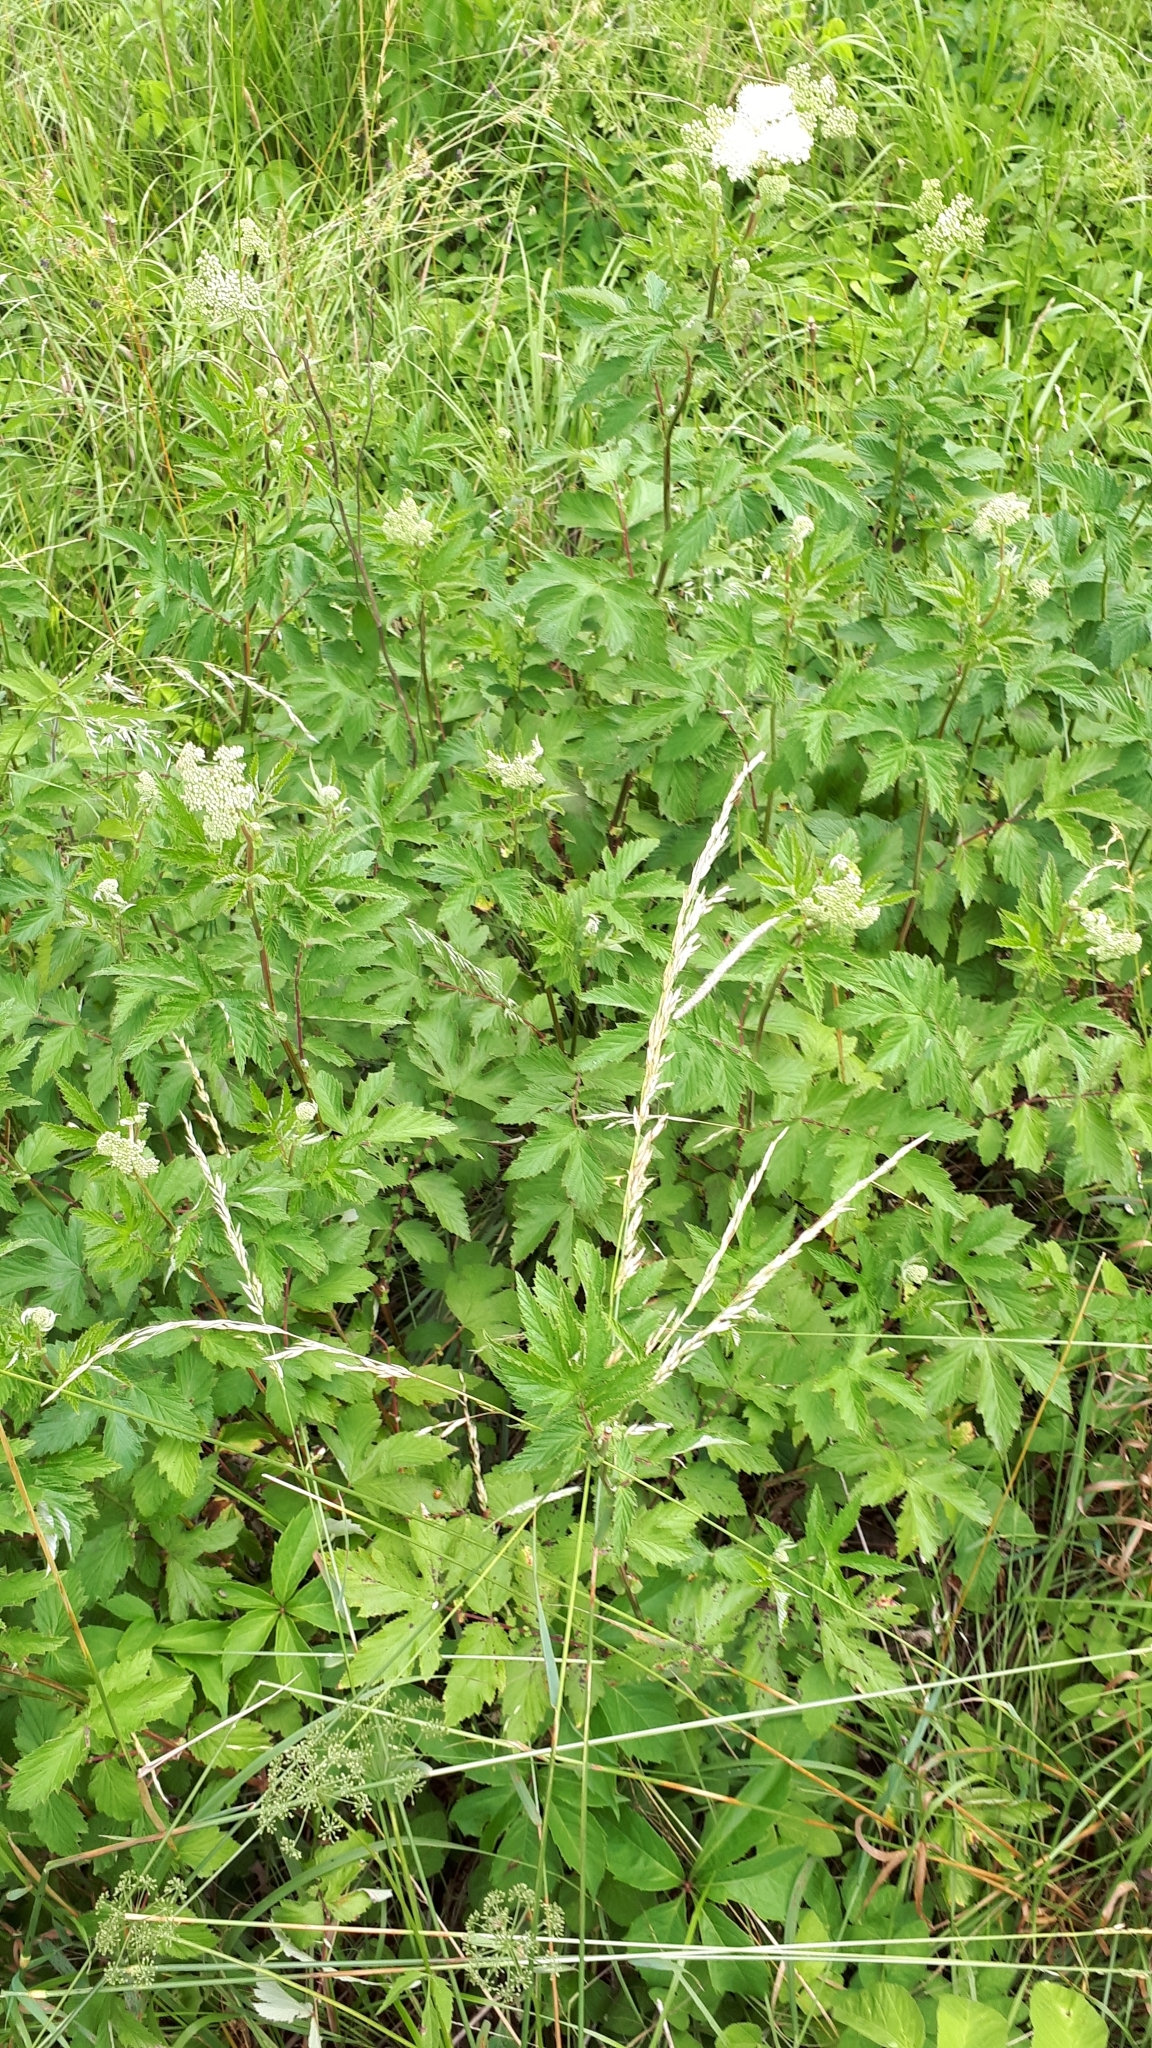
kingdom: Plantae
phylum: Tracheophyta
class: Magnoliopsida
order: Rosales
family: Rosaceae
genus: Filipendula
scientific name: Filipendula ulmaria
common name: Meadowsweet
